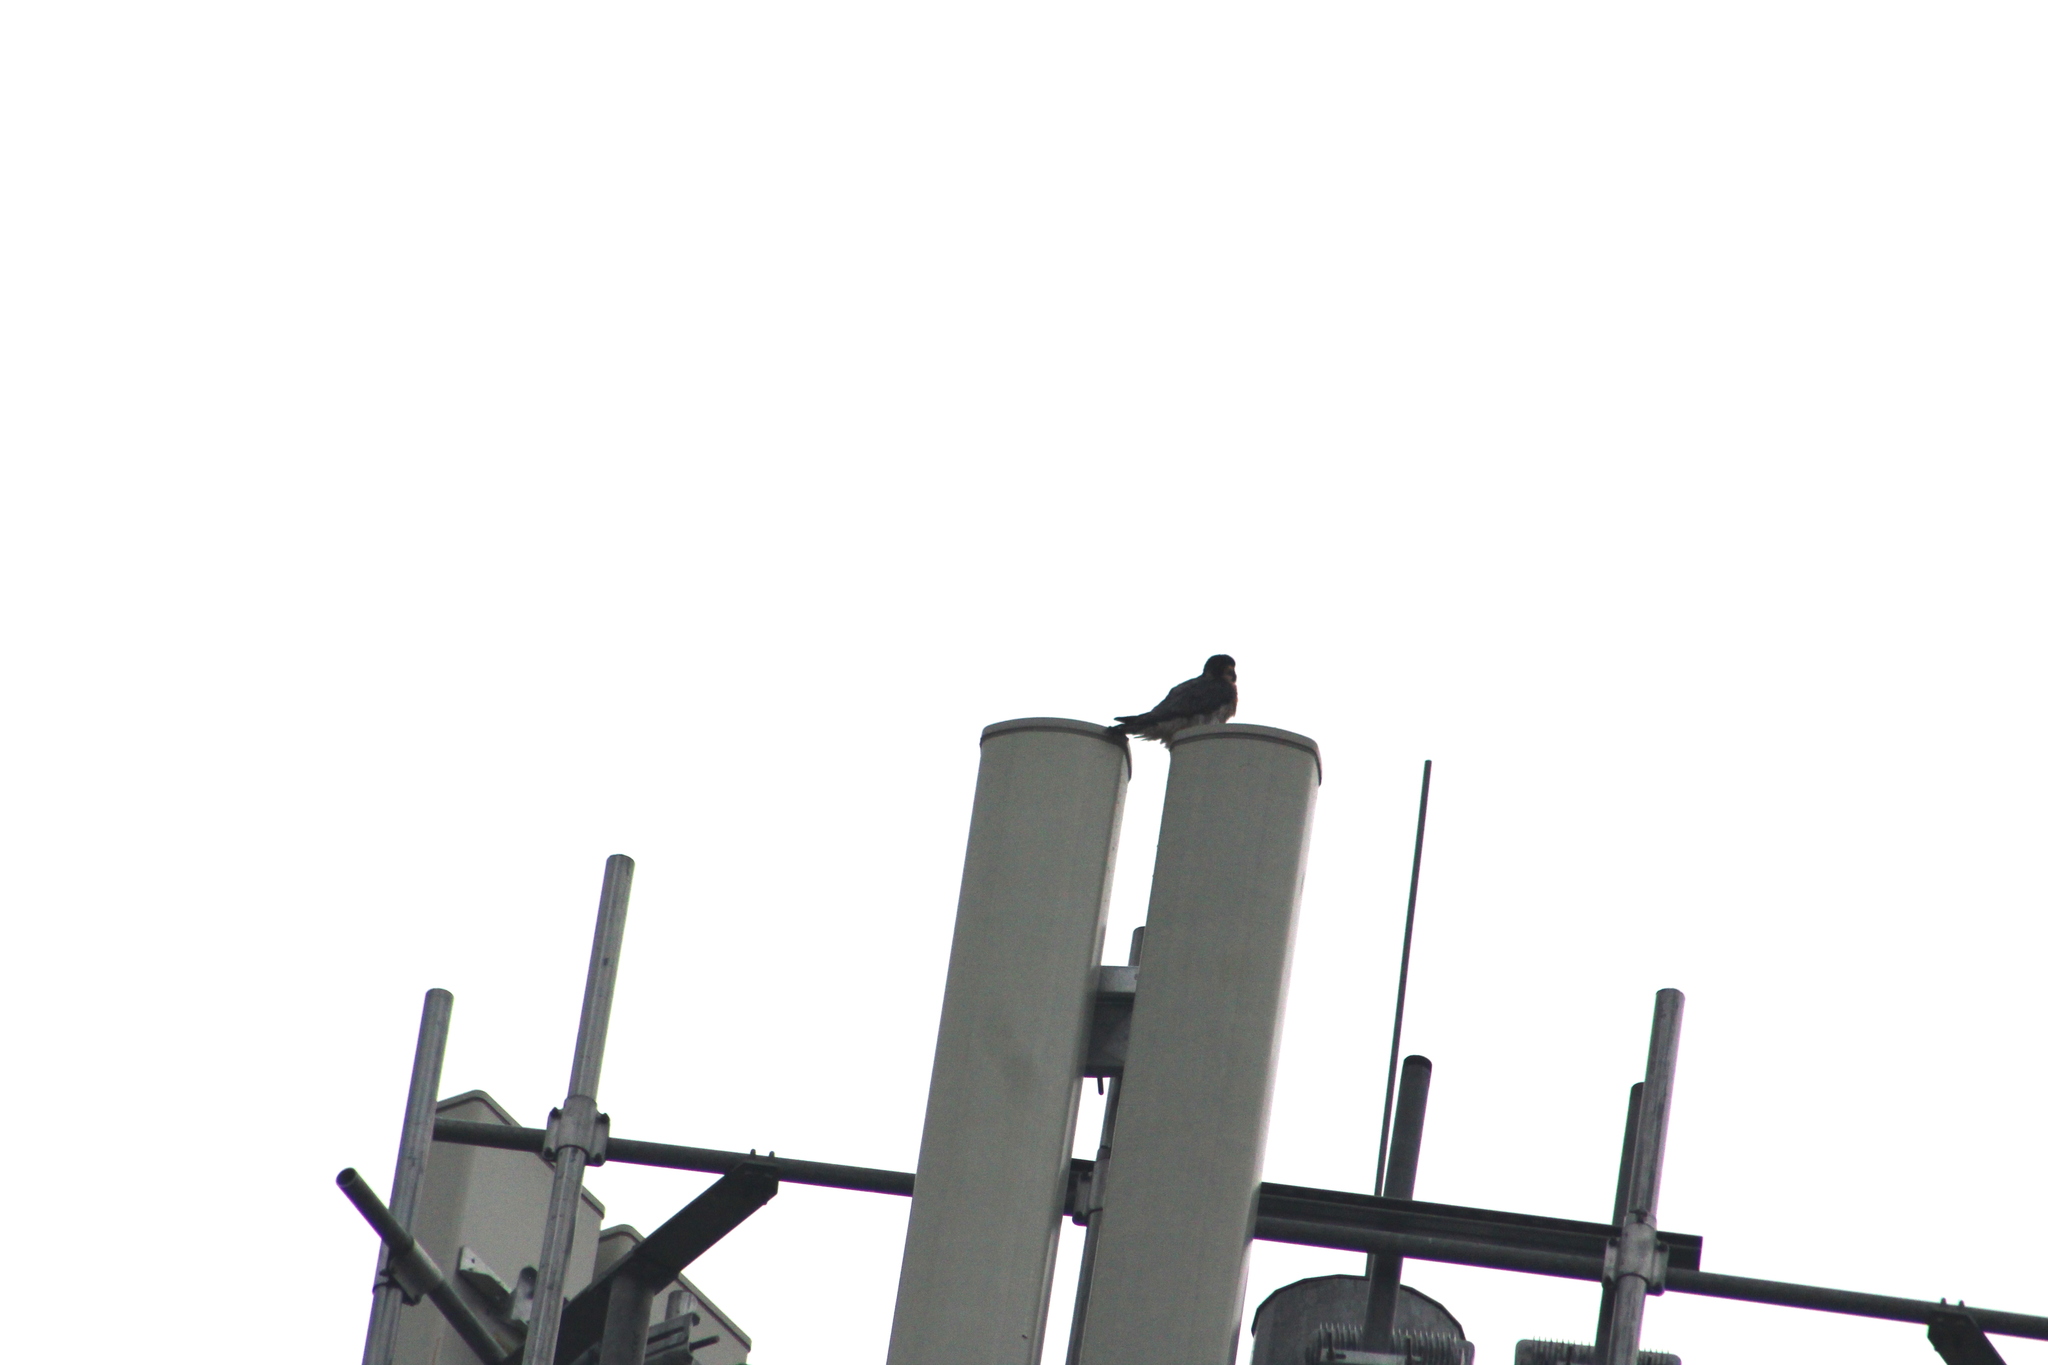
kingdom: Animalia
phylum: Chordata
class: Aves
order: Falconiformes
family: Falconidae
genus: Falco
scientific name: Falco peregrinus
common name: Peregrine falcon
